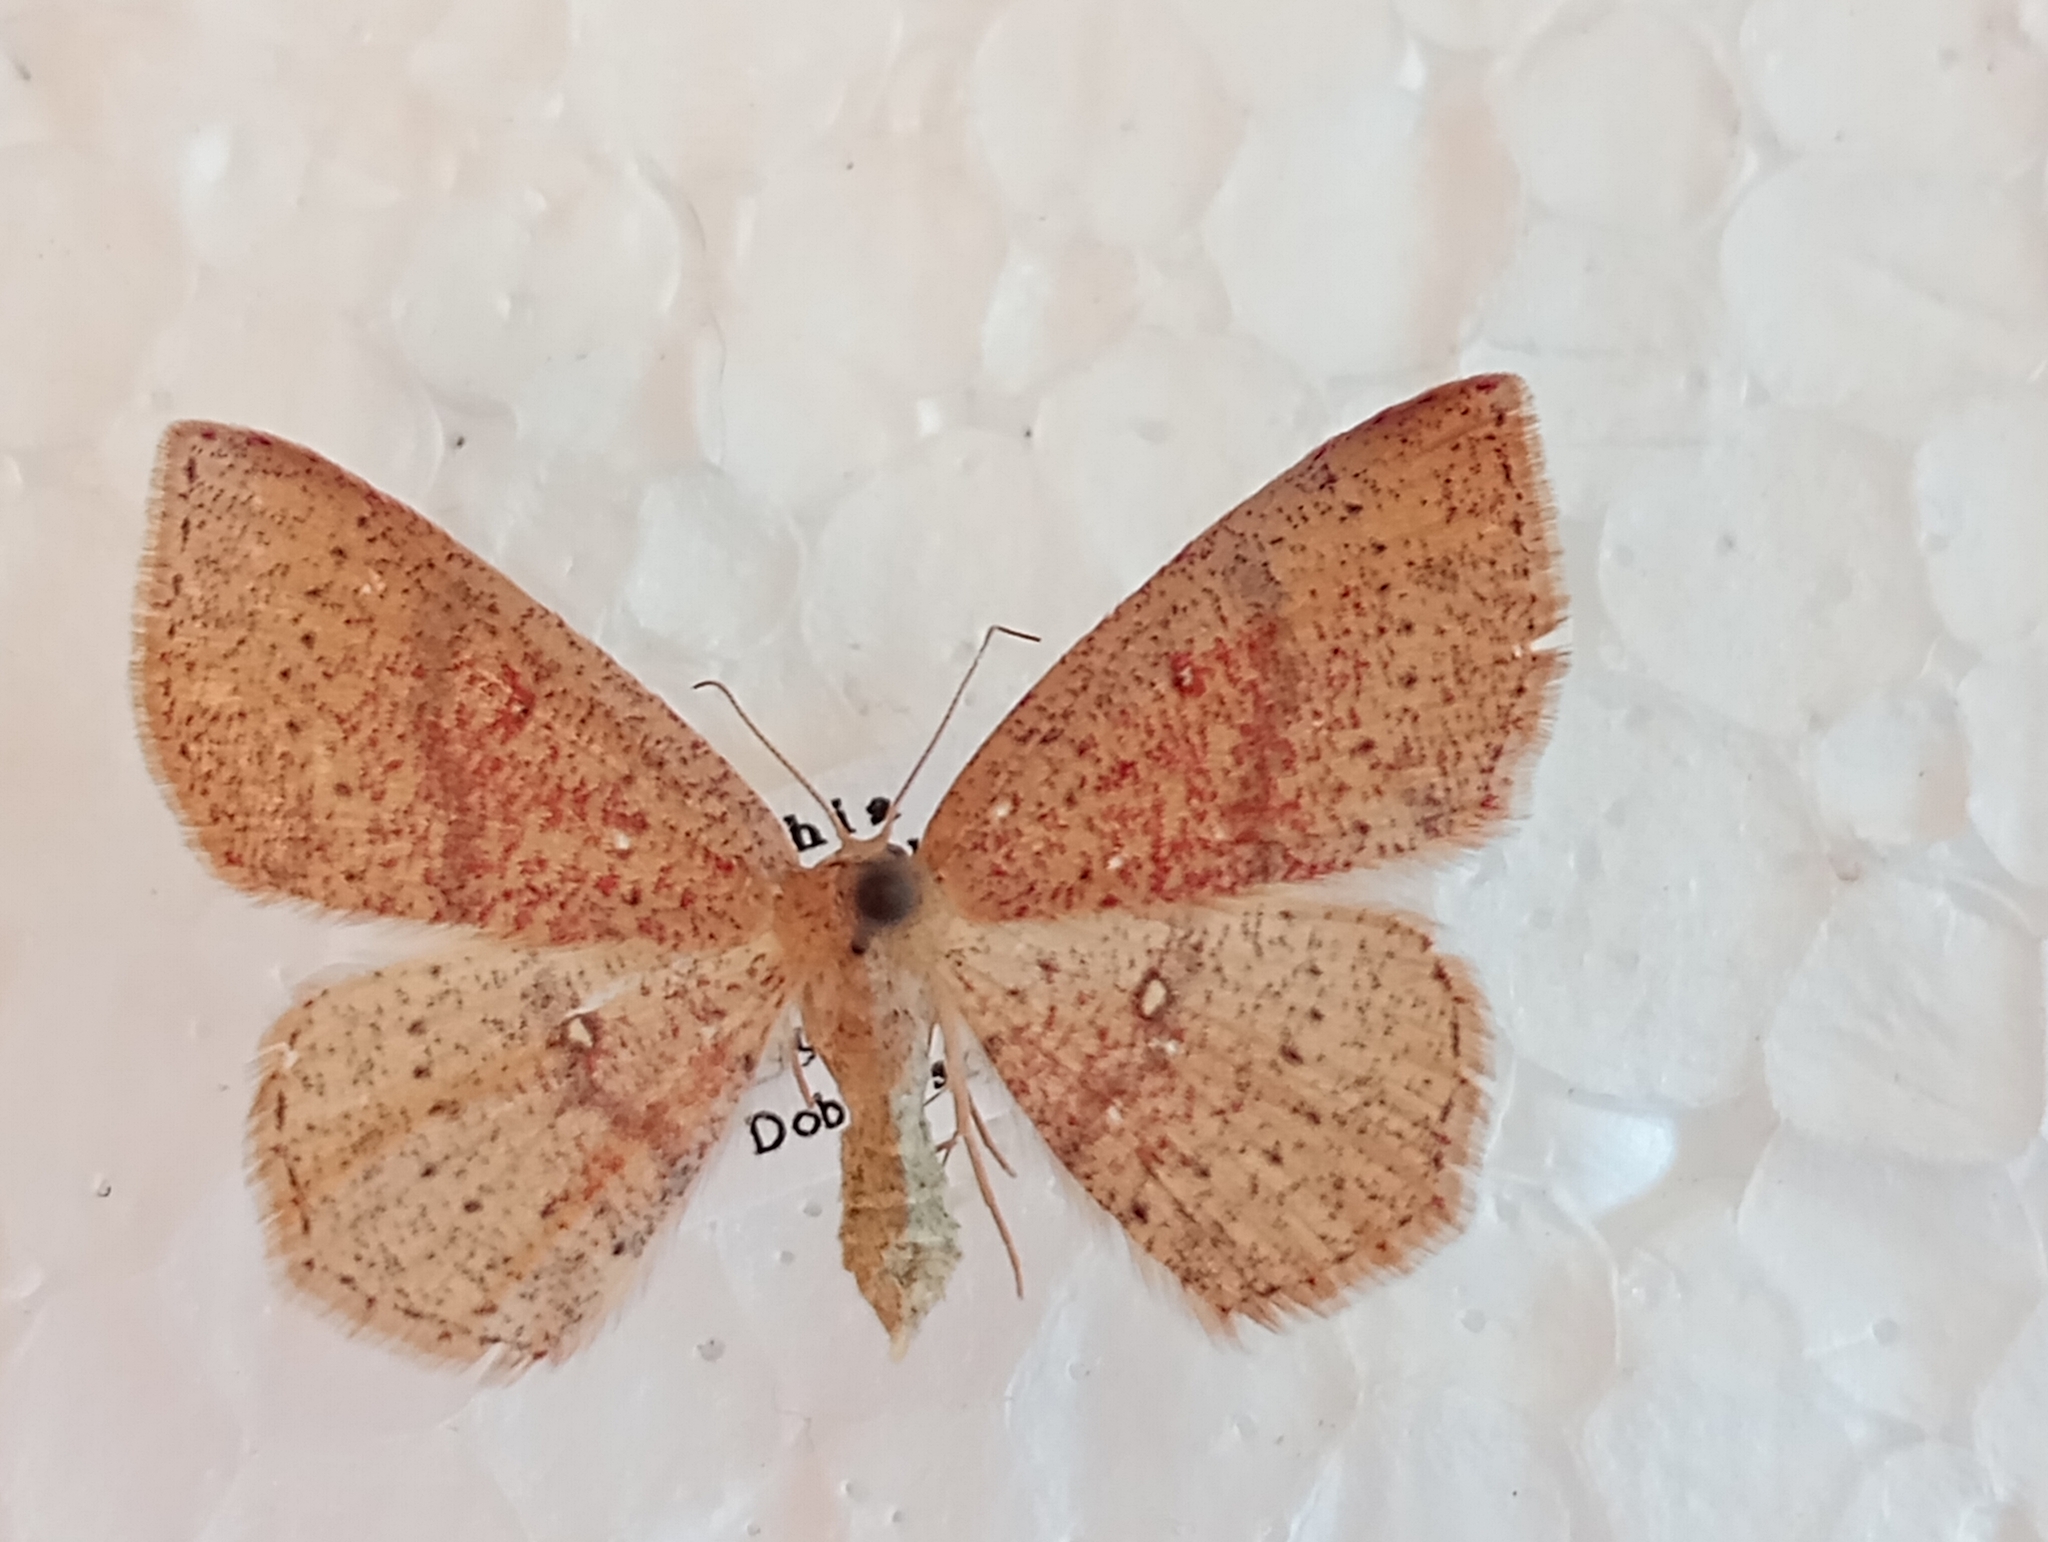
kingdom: Animalia
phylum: Arthropoda
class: Insecta
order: Lepidoptera
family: Geometridae
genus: Cyclophora
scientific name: Cyclophora porata
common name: False mocha
